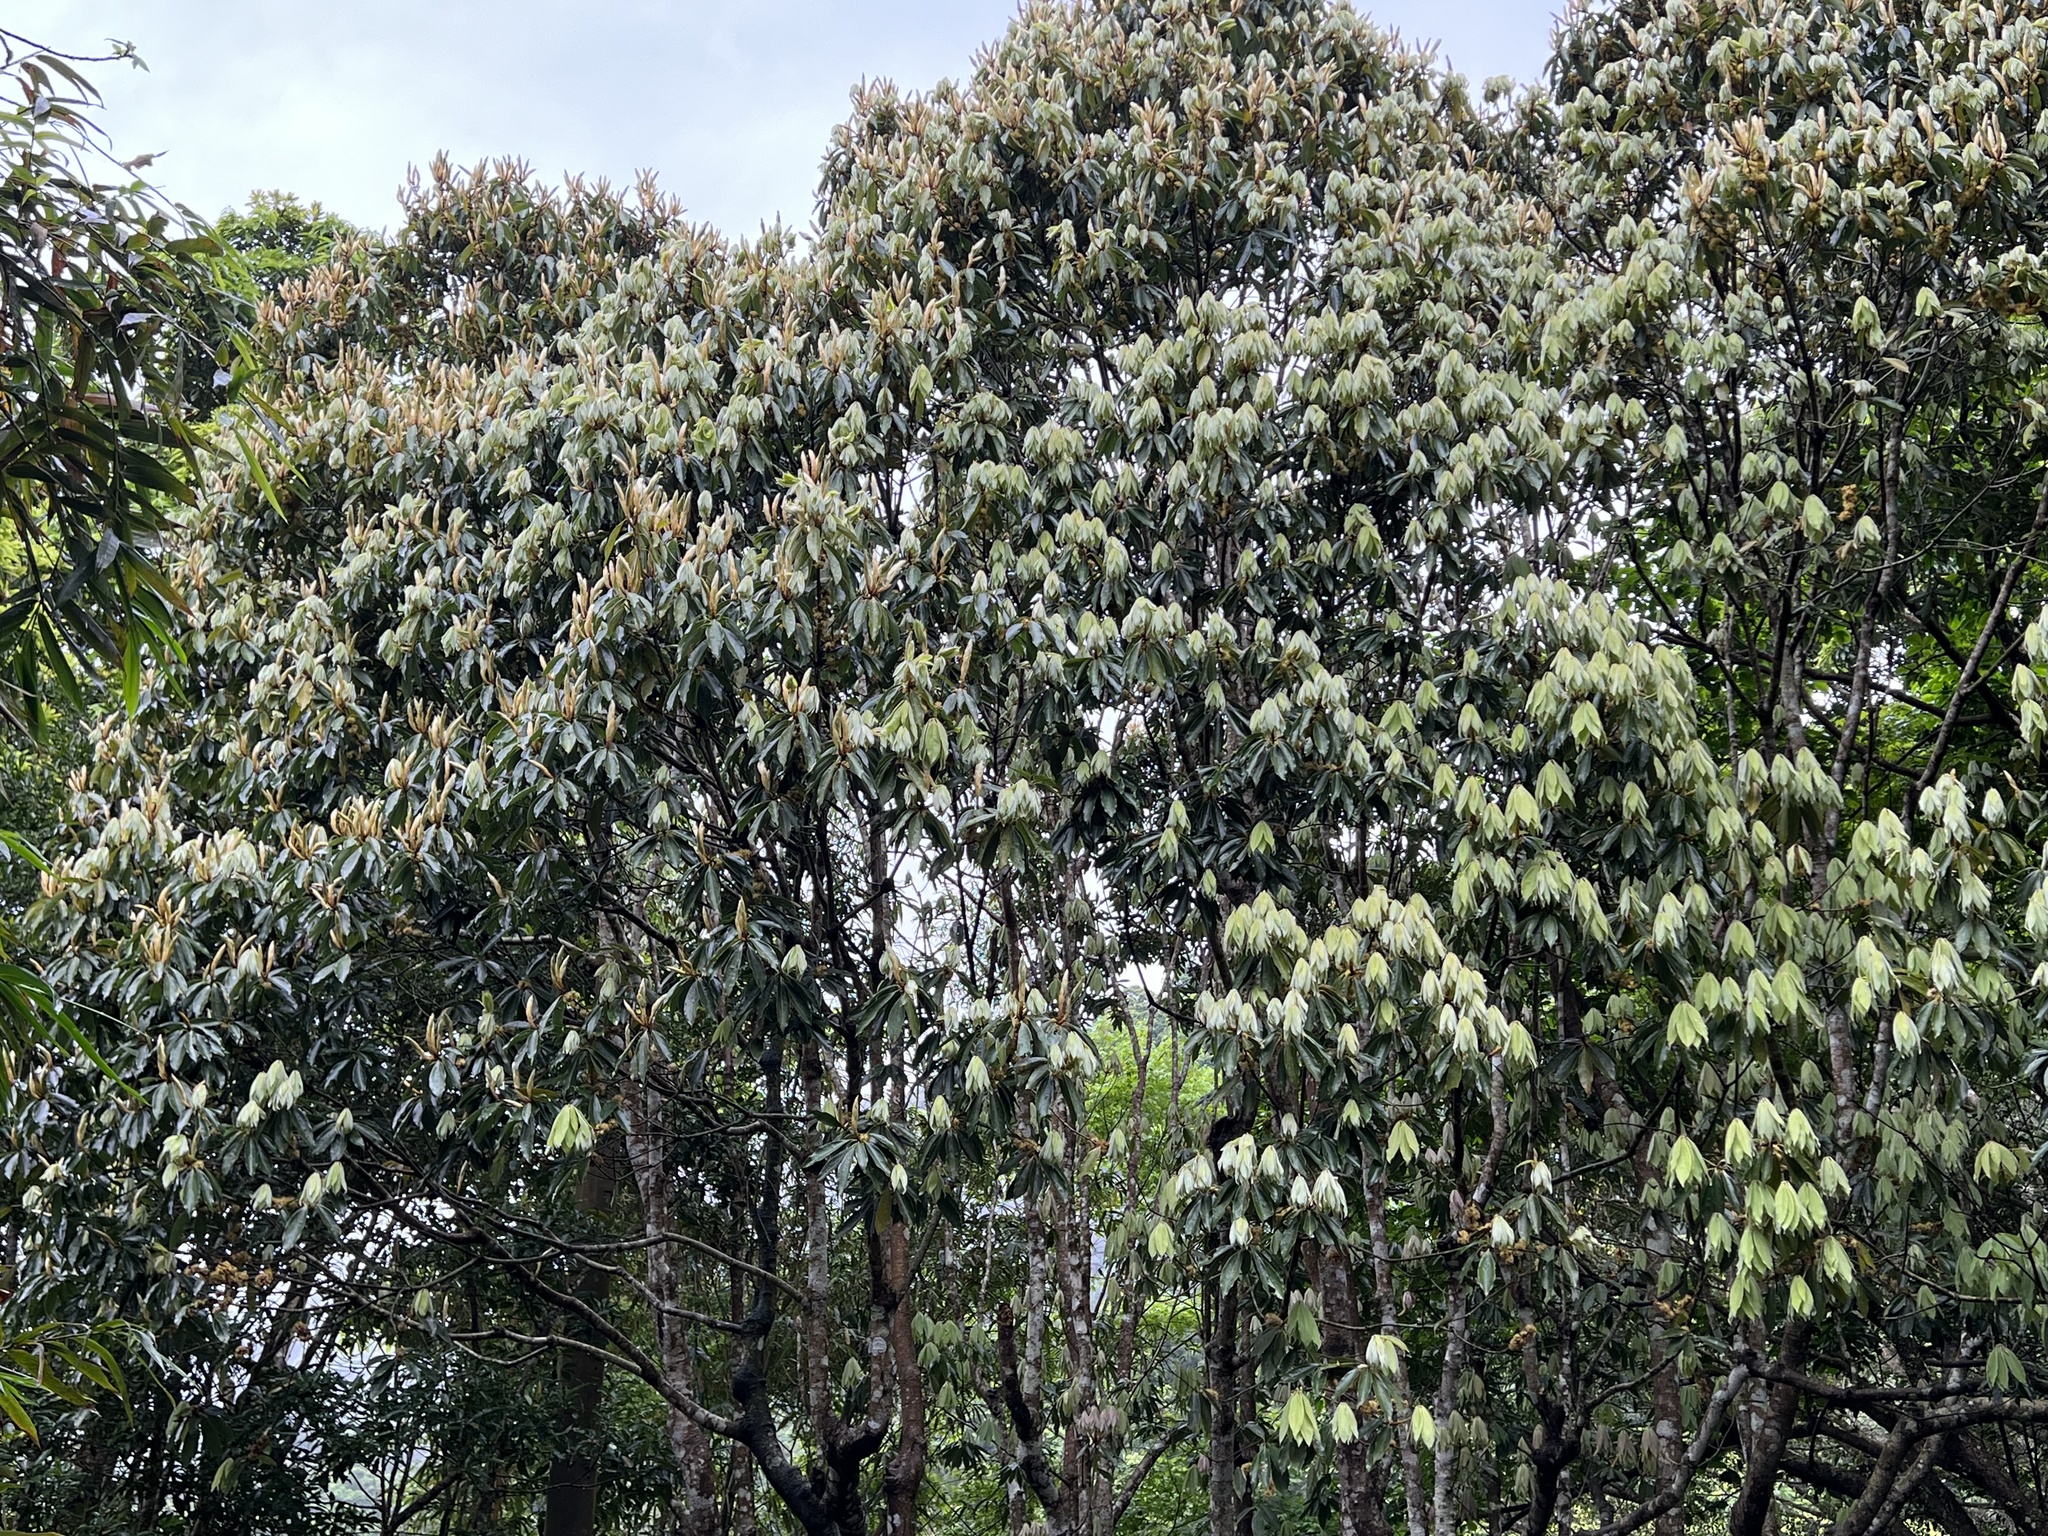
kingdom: Plantae
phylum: Tracheophyta
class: Magnoliopsida
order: Laurales
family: Lauraceae
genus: Neolitsea
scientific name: Neolitsea sericea
